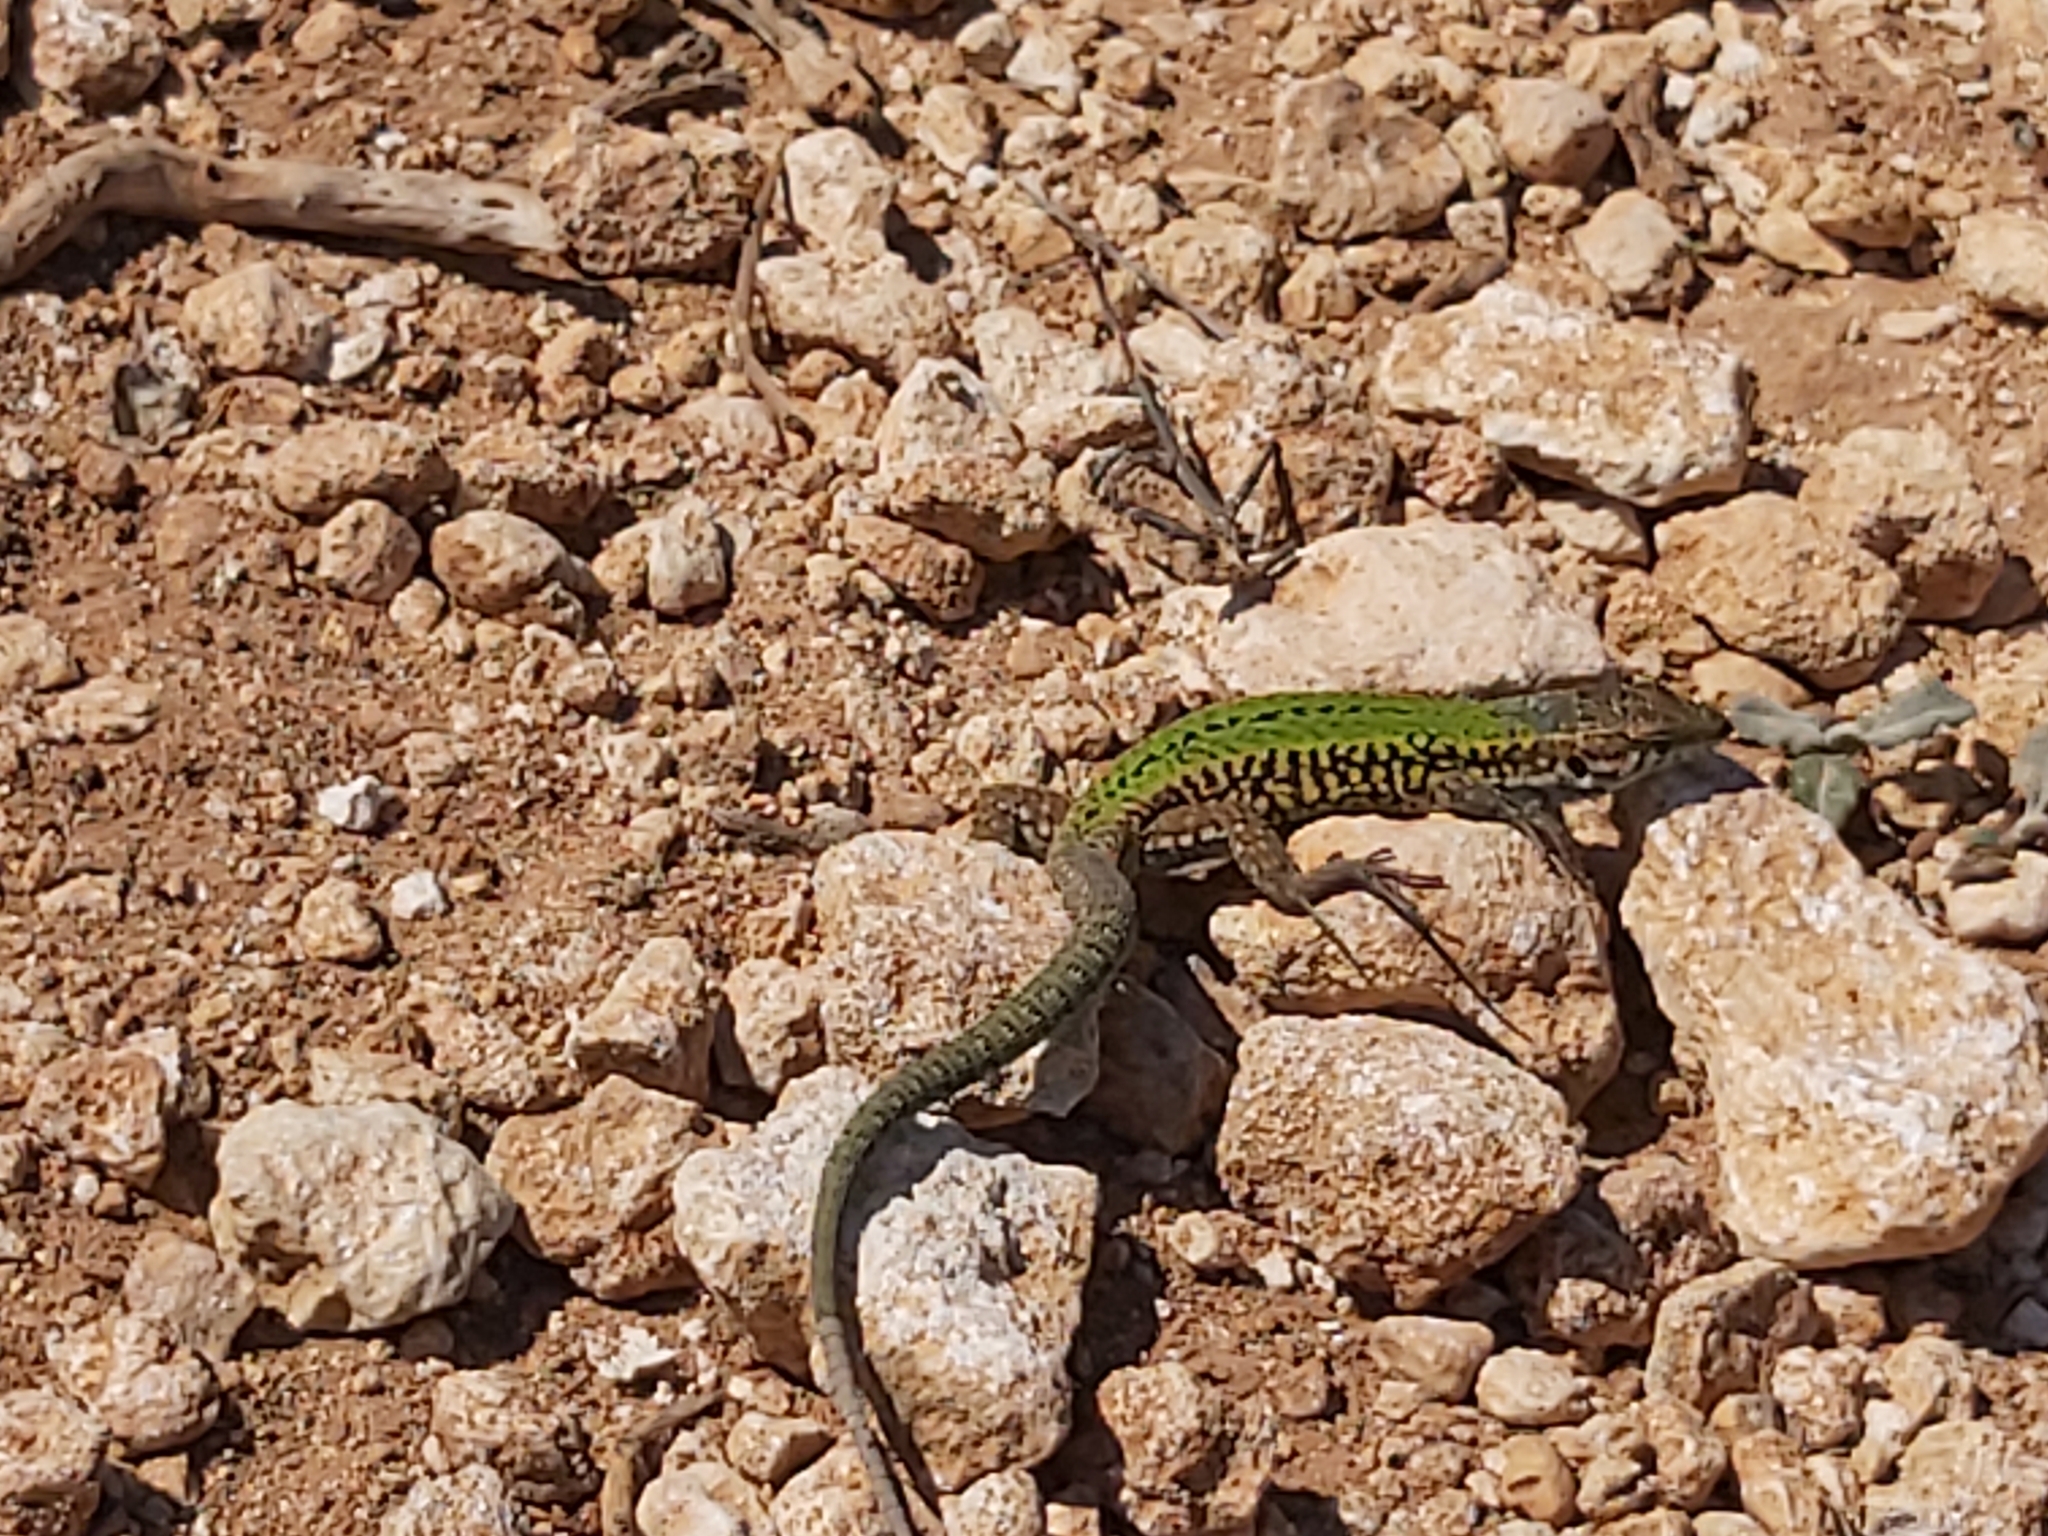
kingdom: Animalia
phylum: Chordata
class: Squamata
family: Lacertidae
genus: Podarcis
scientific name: Podarcis filfolensis
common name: Maltese wall lizard
